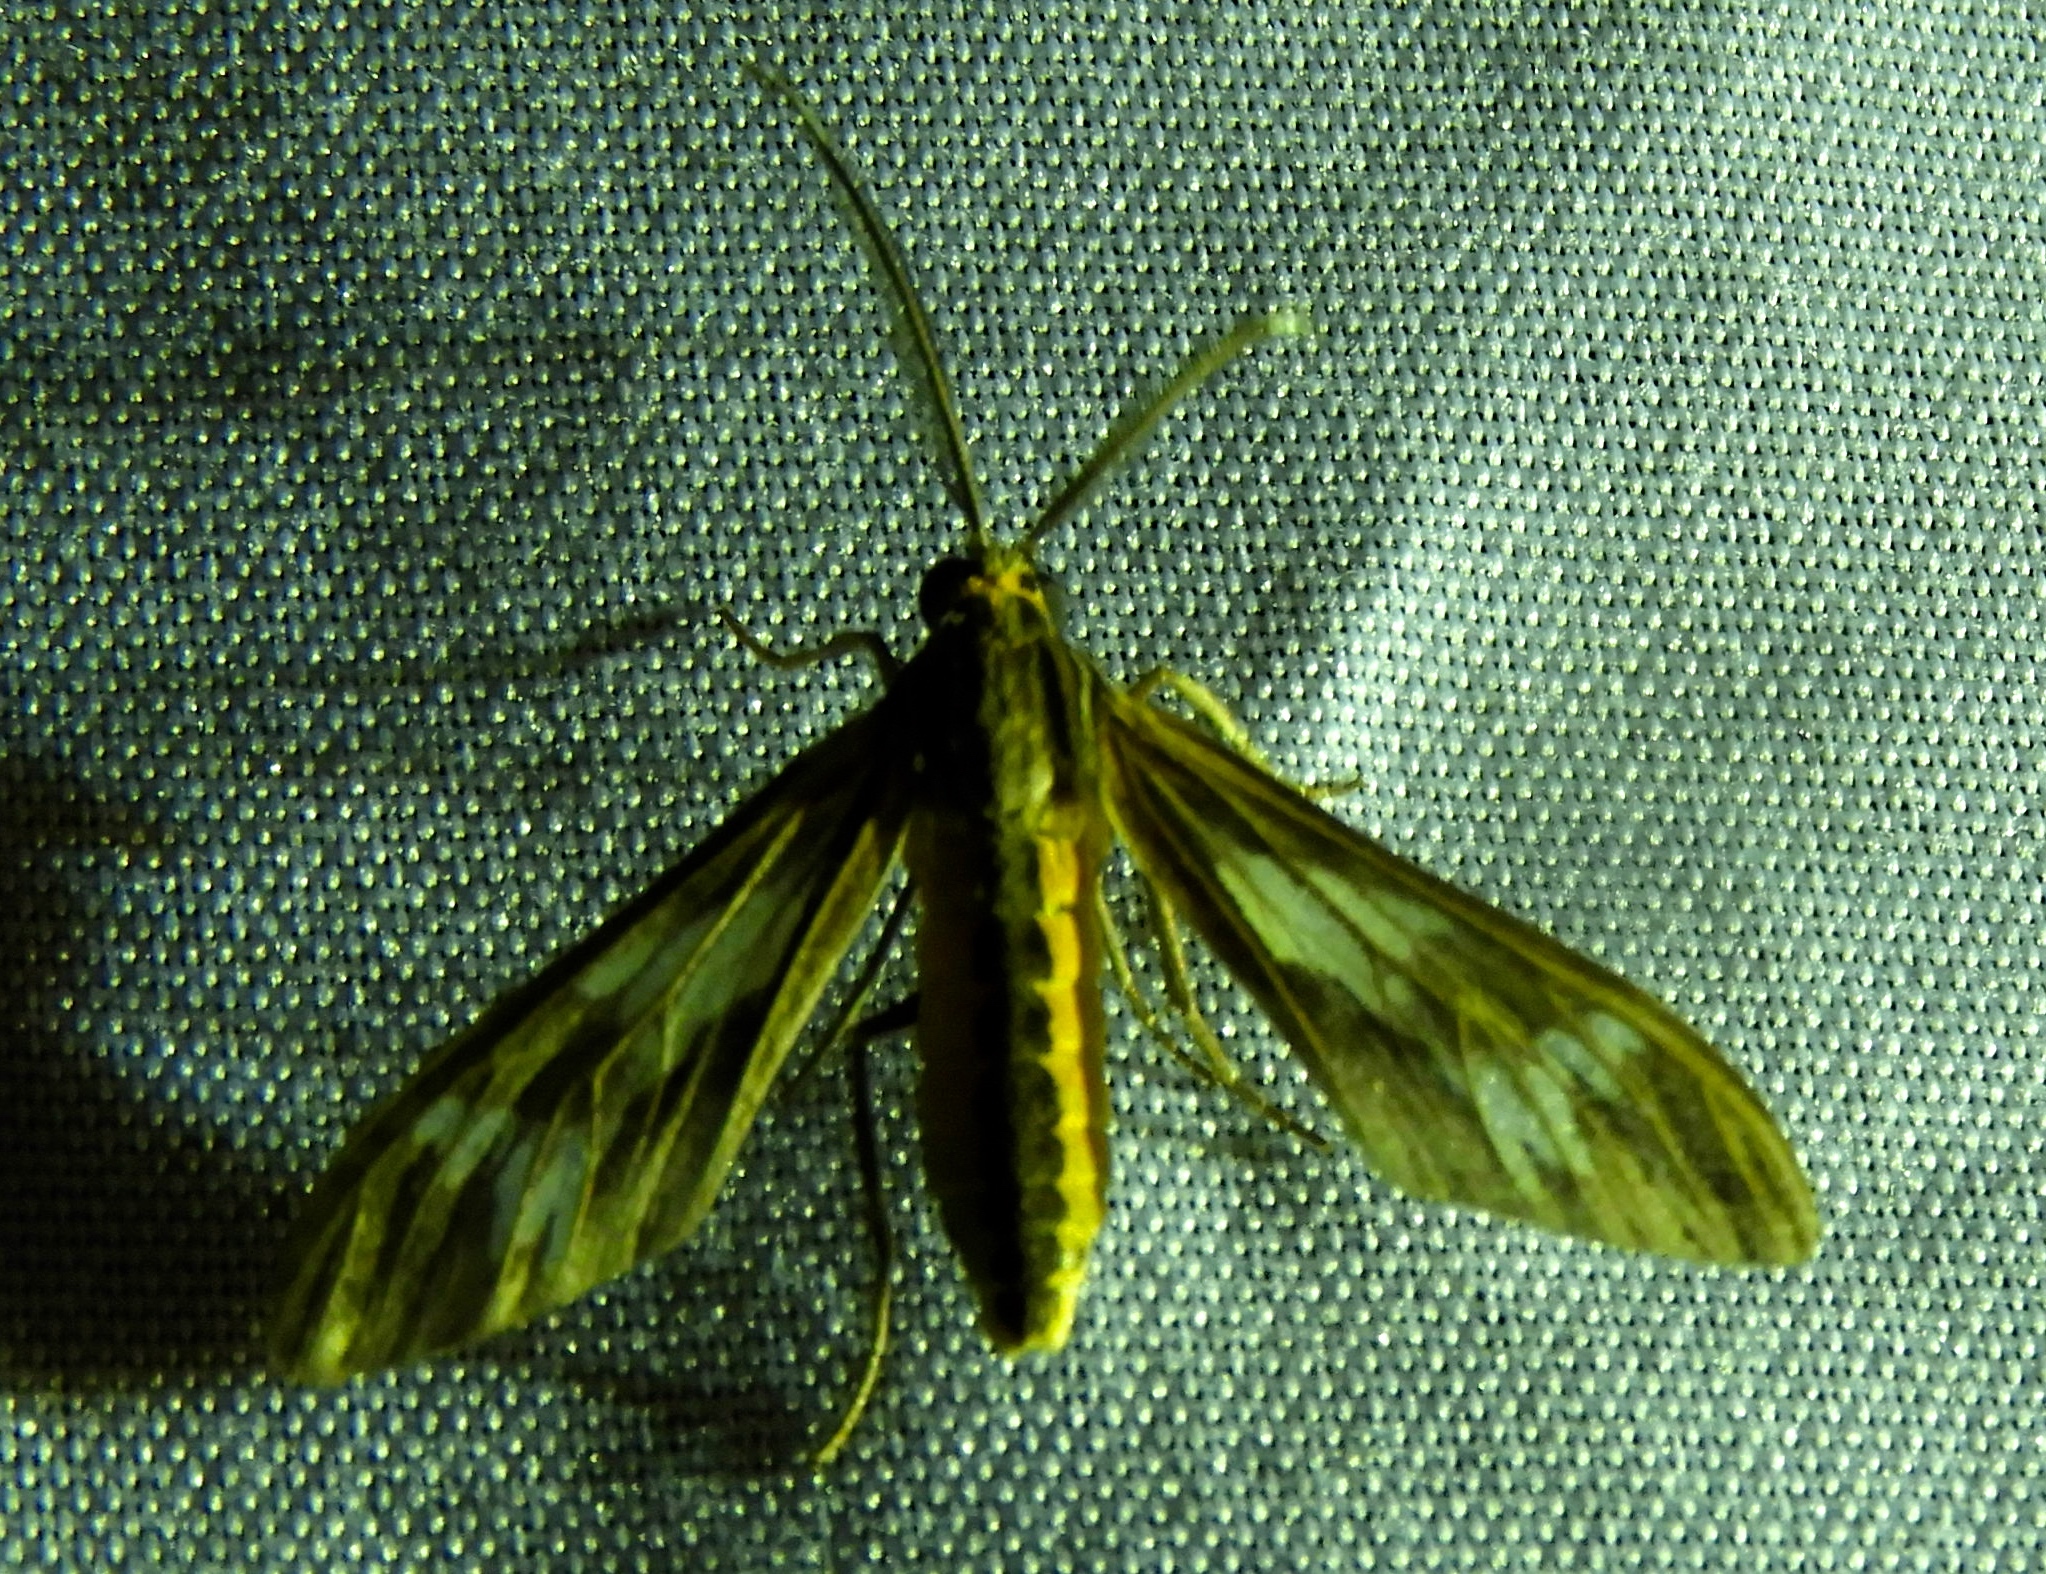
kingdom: Animalia
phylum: Arthropoda
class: Insecta
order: Lepidoptera
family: Erebidae
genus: Psilopleura
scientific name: Psilopleura vittata
